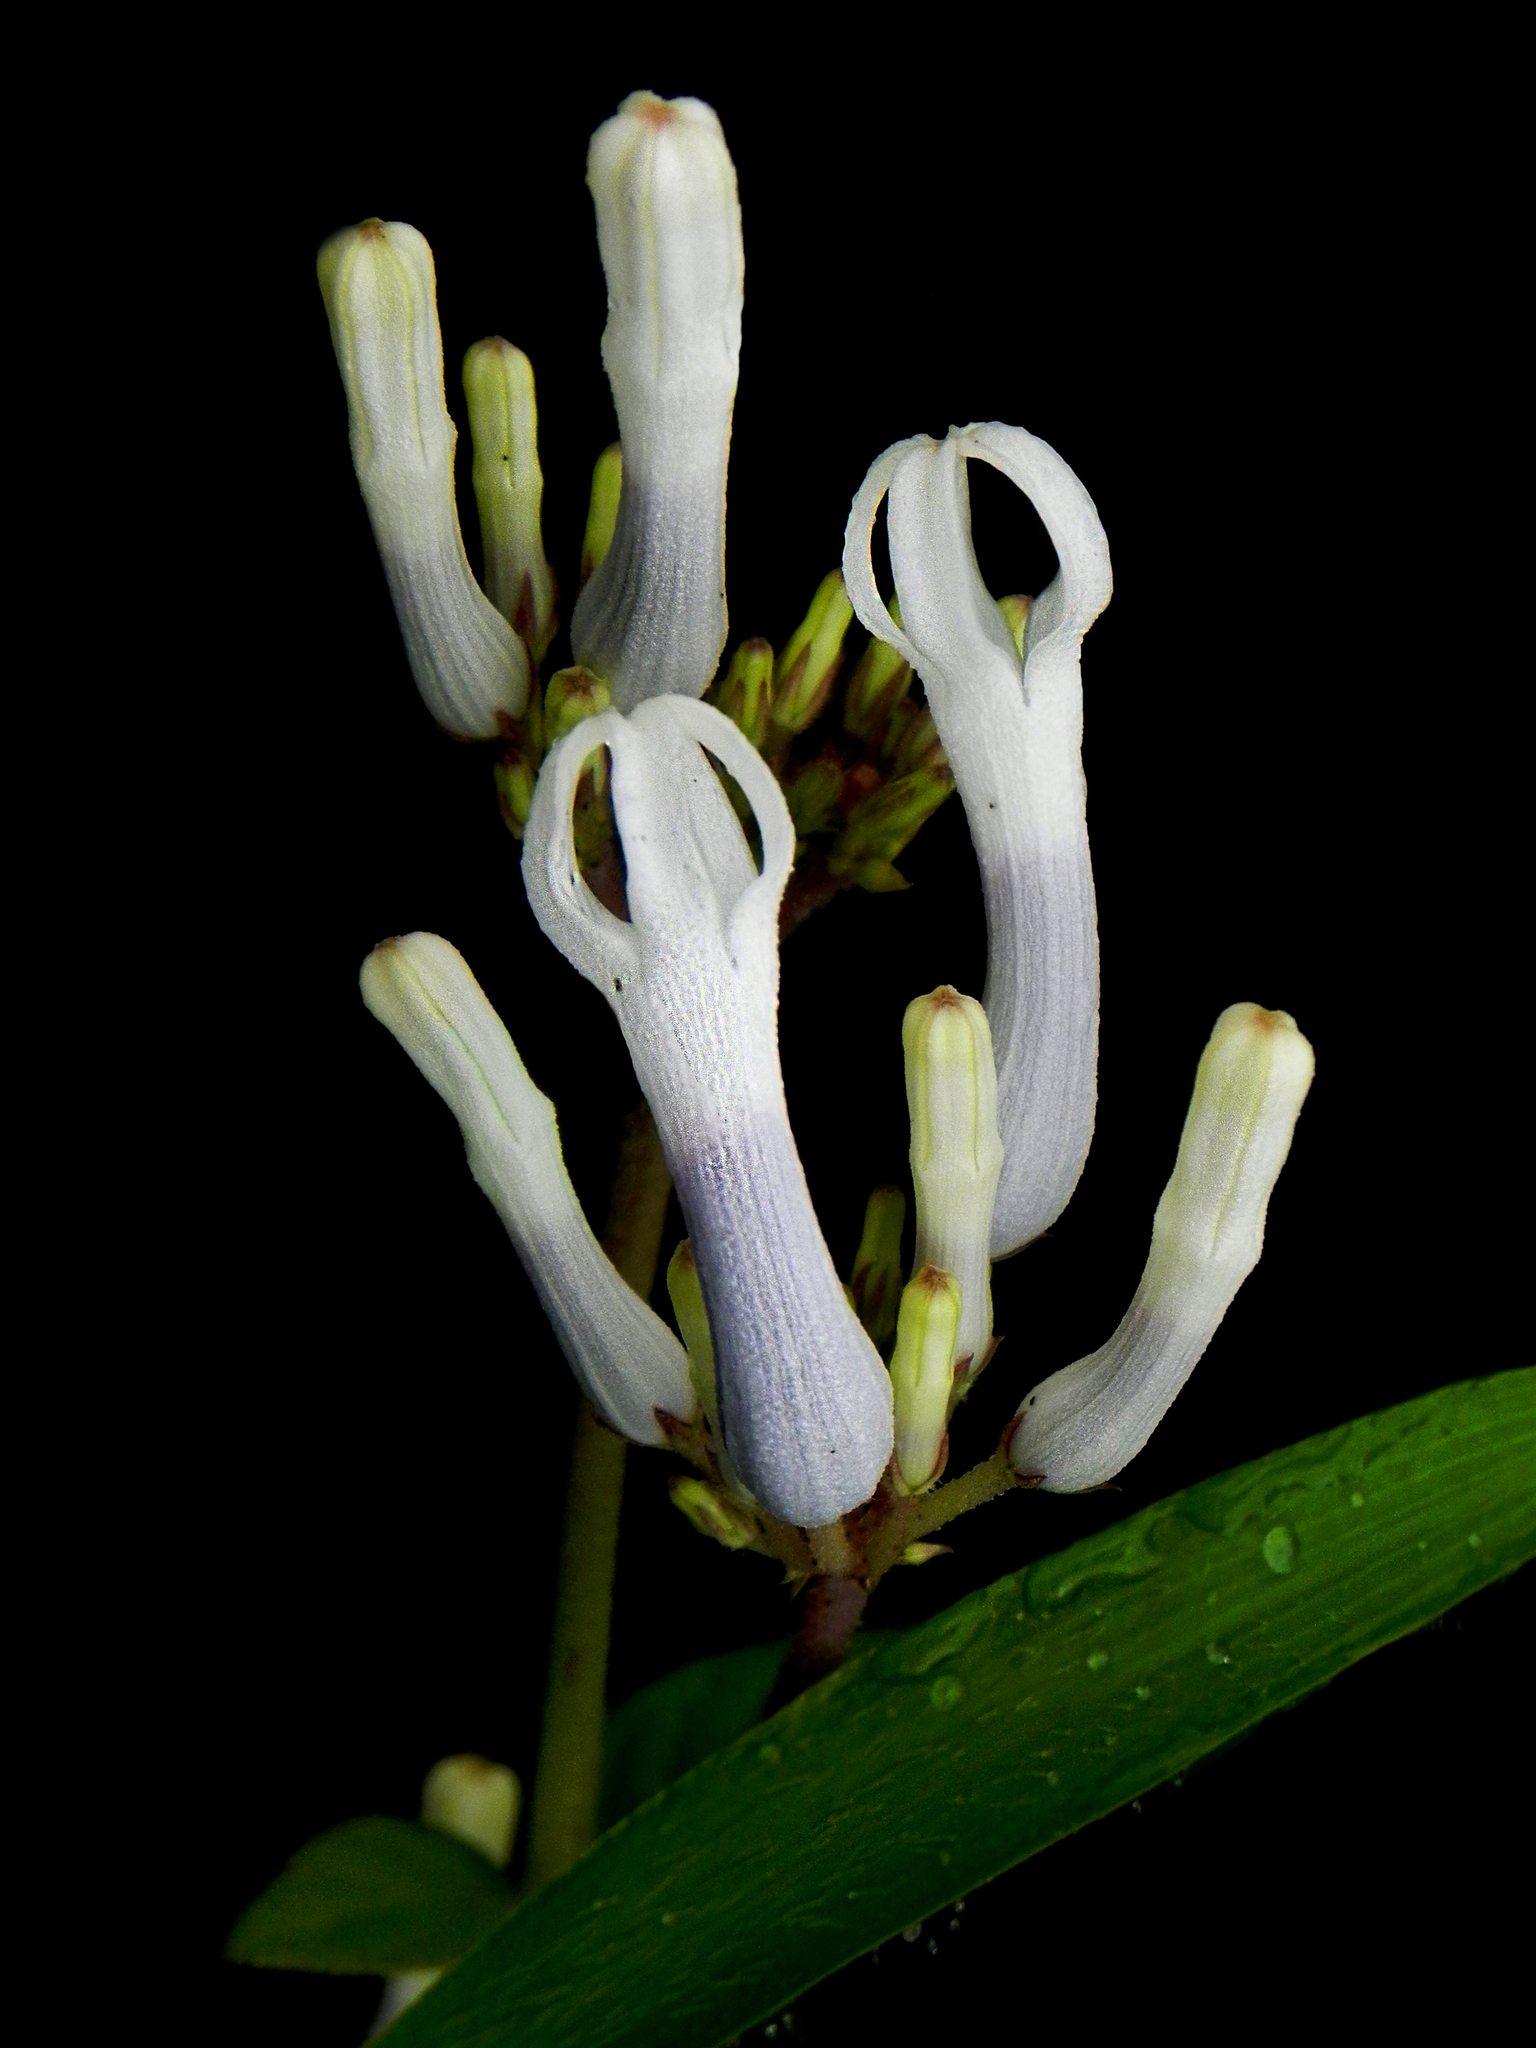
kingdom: Plantae
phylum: Tracheophyta
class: Magnoliopsida
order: Gentianales
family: Apocynaceae
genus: Ceropegia
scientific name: Ceropegia lawii
